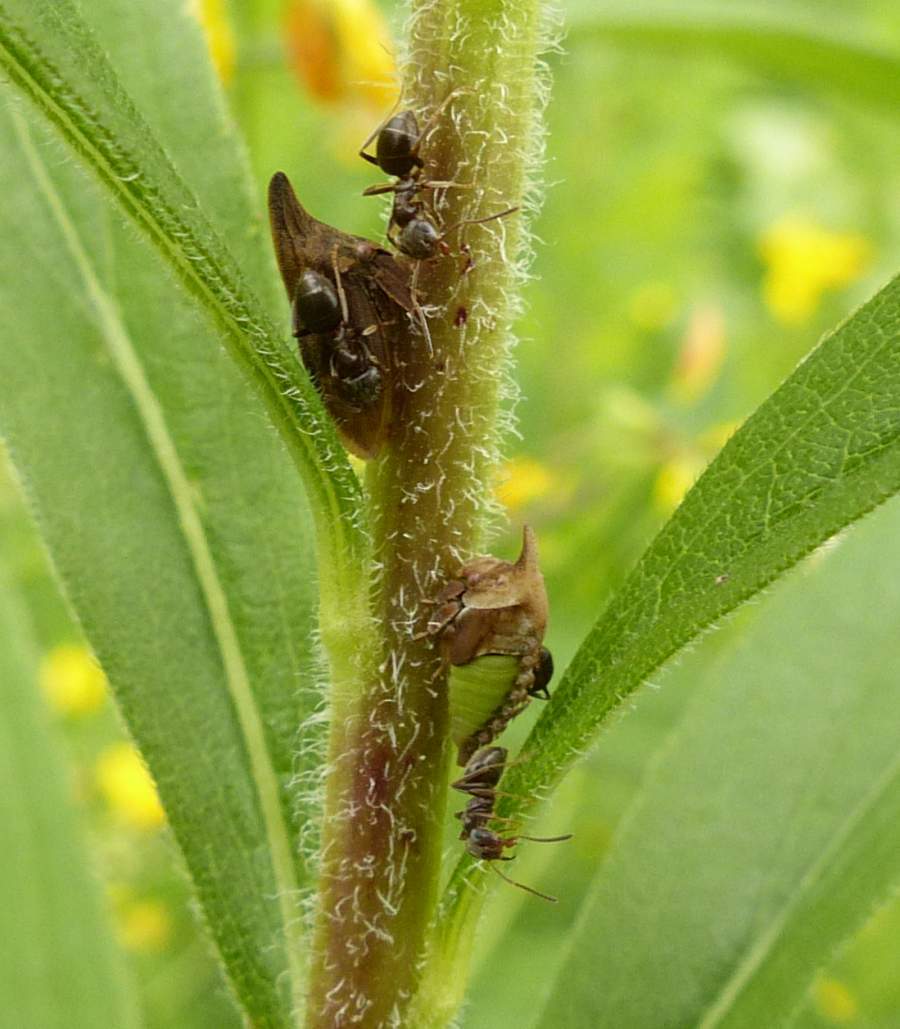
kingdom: Animalia
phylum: Arthropoda
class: Insecta
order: Hemiptera
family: Membracidae
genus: Enchenopa
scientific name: Enchenopa latipes
